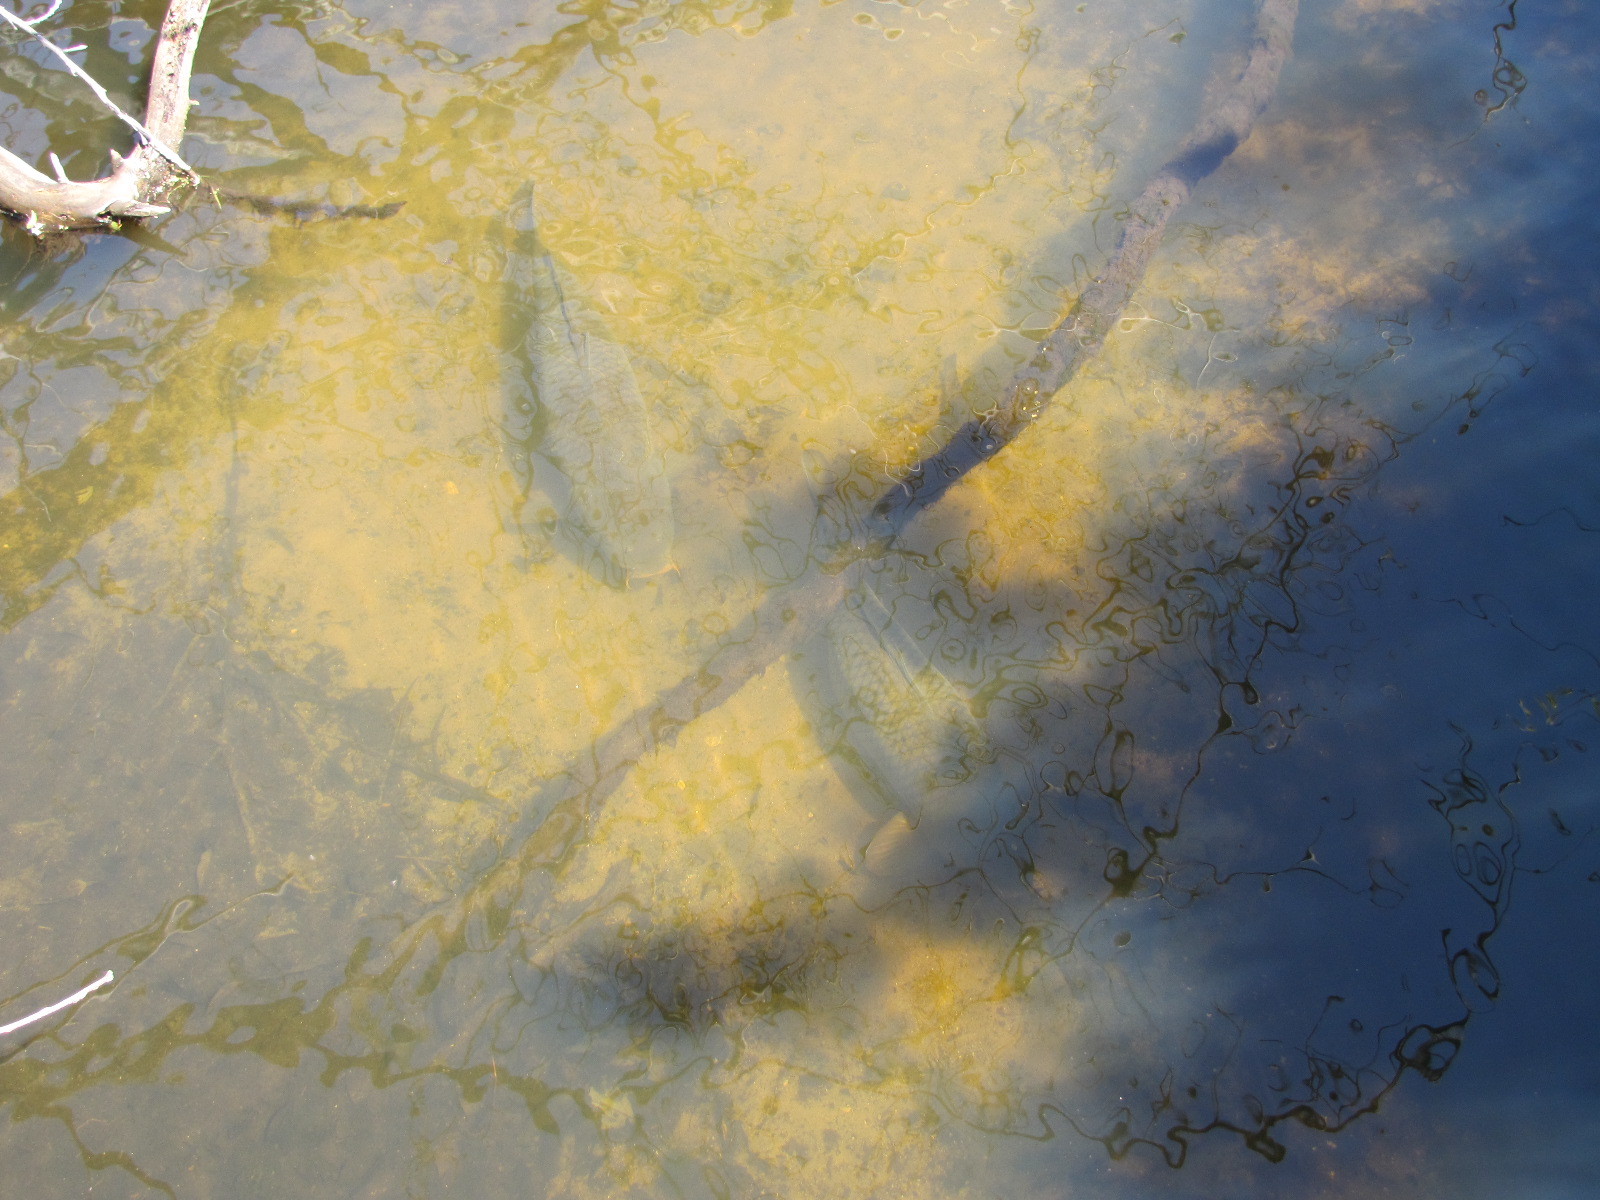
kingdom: Animalia
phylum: Chordata
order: Cypriniformes
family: Cyprinidae
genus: Cyprinus
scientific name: Cyprinus carpio
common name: Common carp
